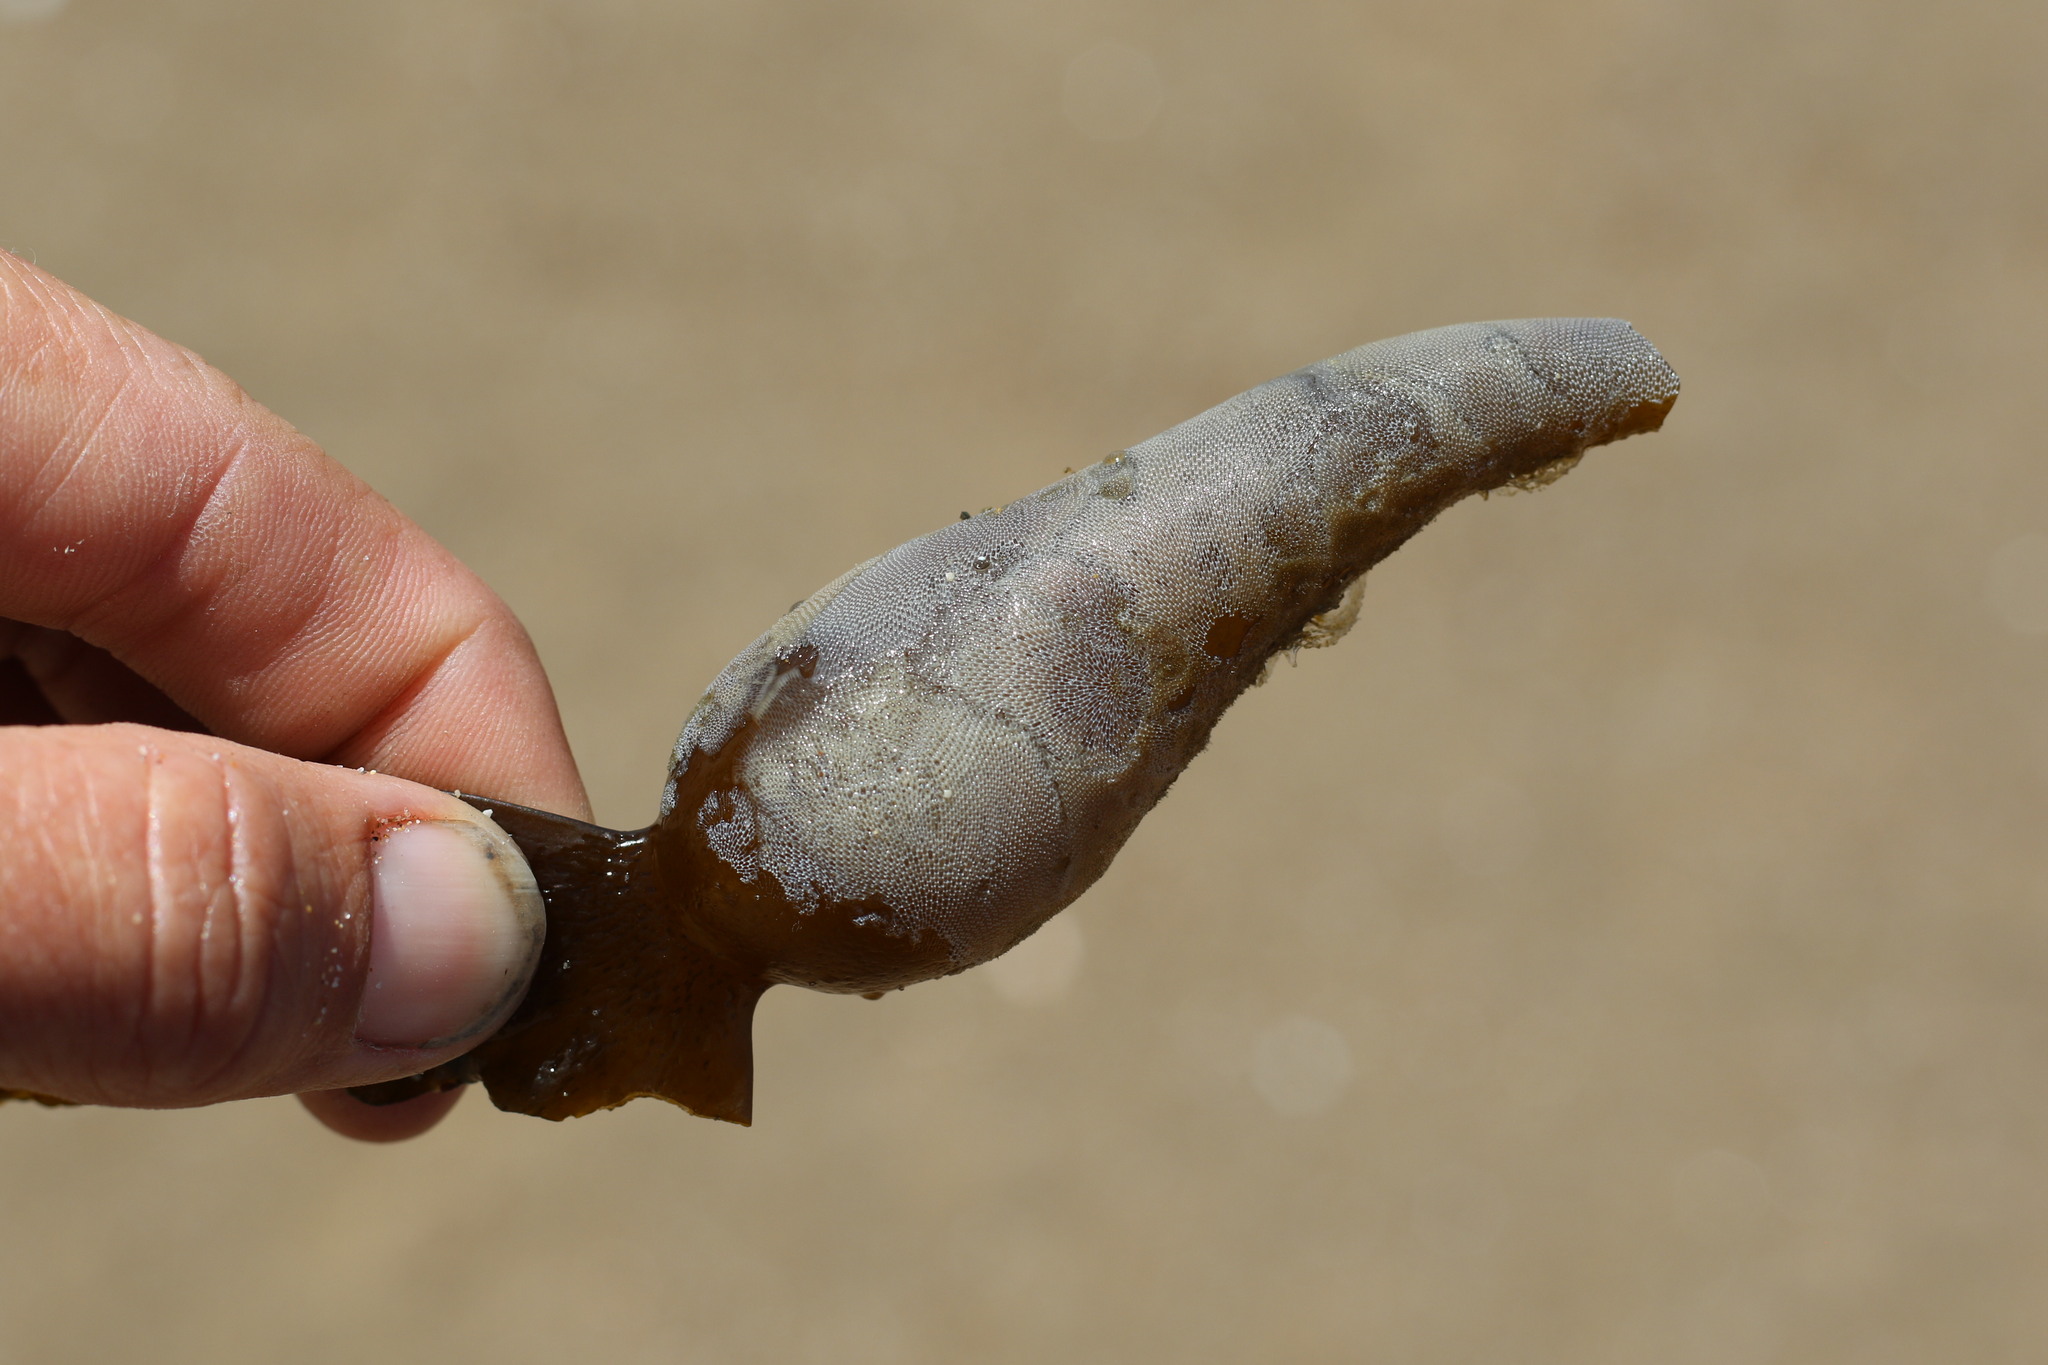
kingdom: Animalia
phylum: Bryozoa
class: Gymnolaemata
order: Cheilostomatida
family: Membraniporidae
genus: Membranipora
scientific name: Membranipora membranacea
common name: Sea mat
